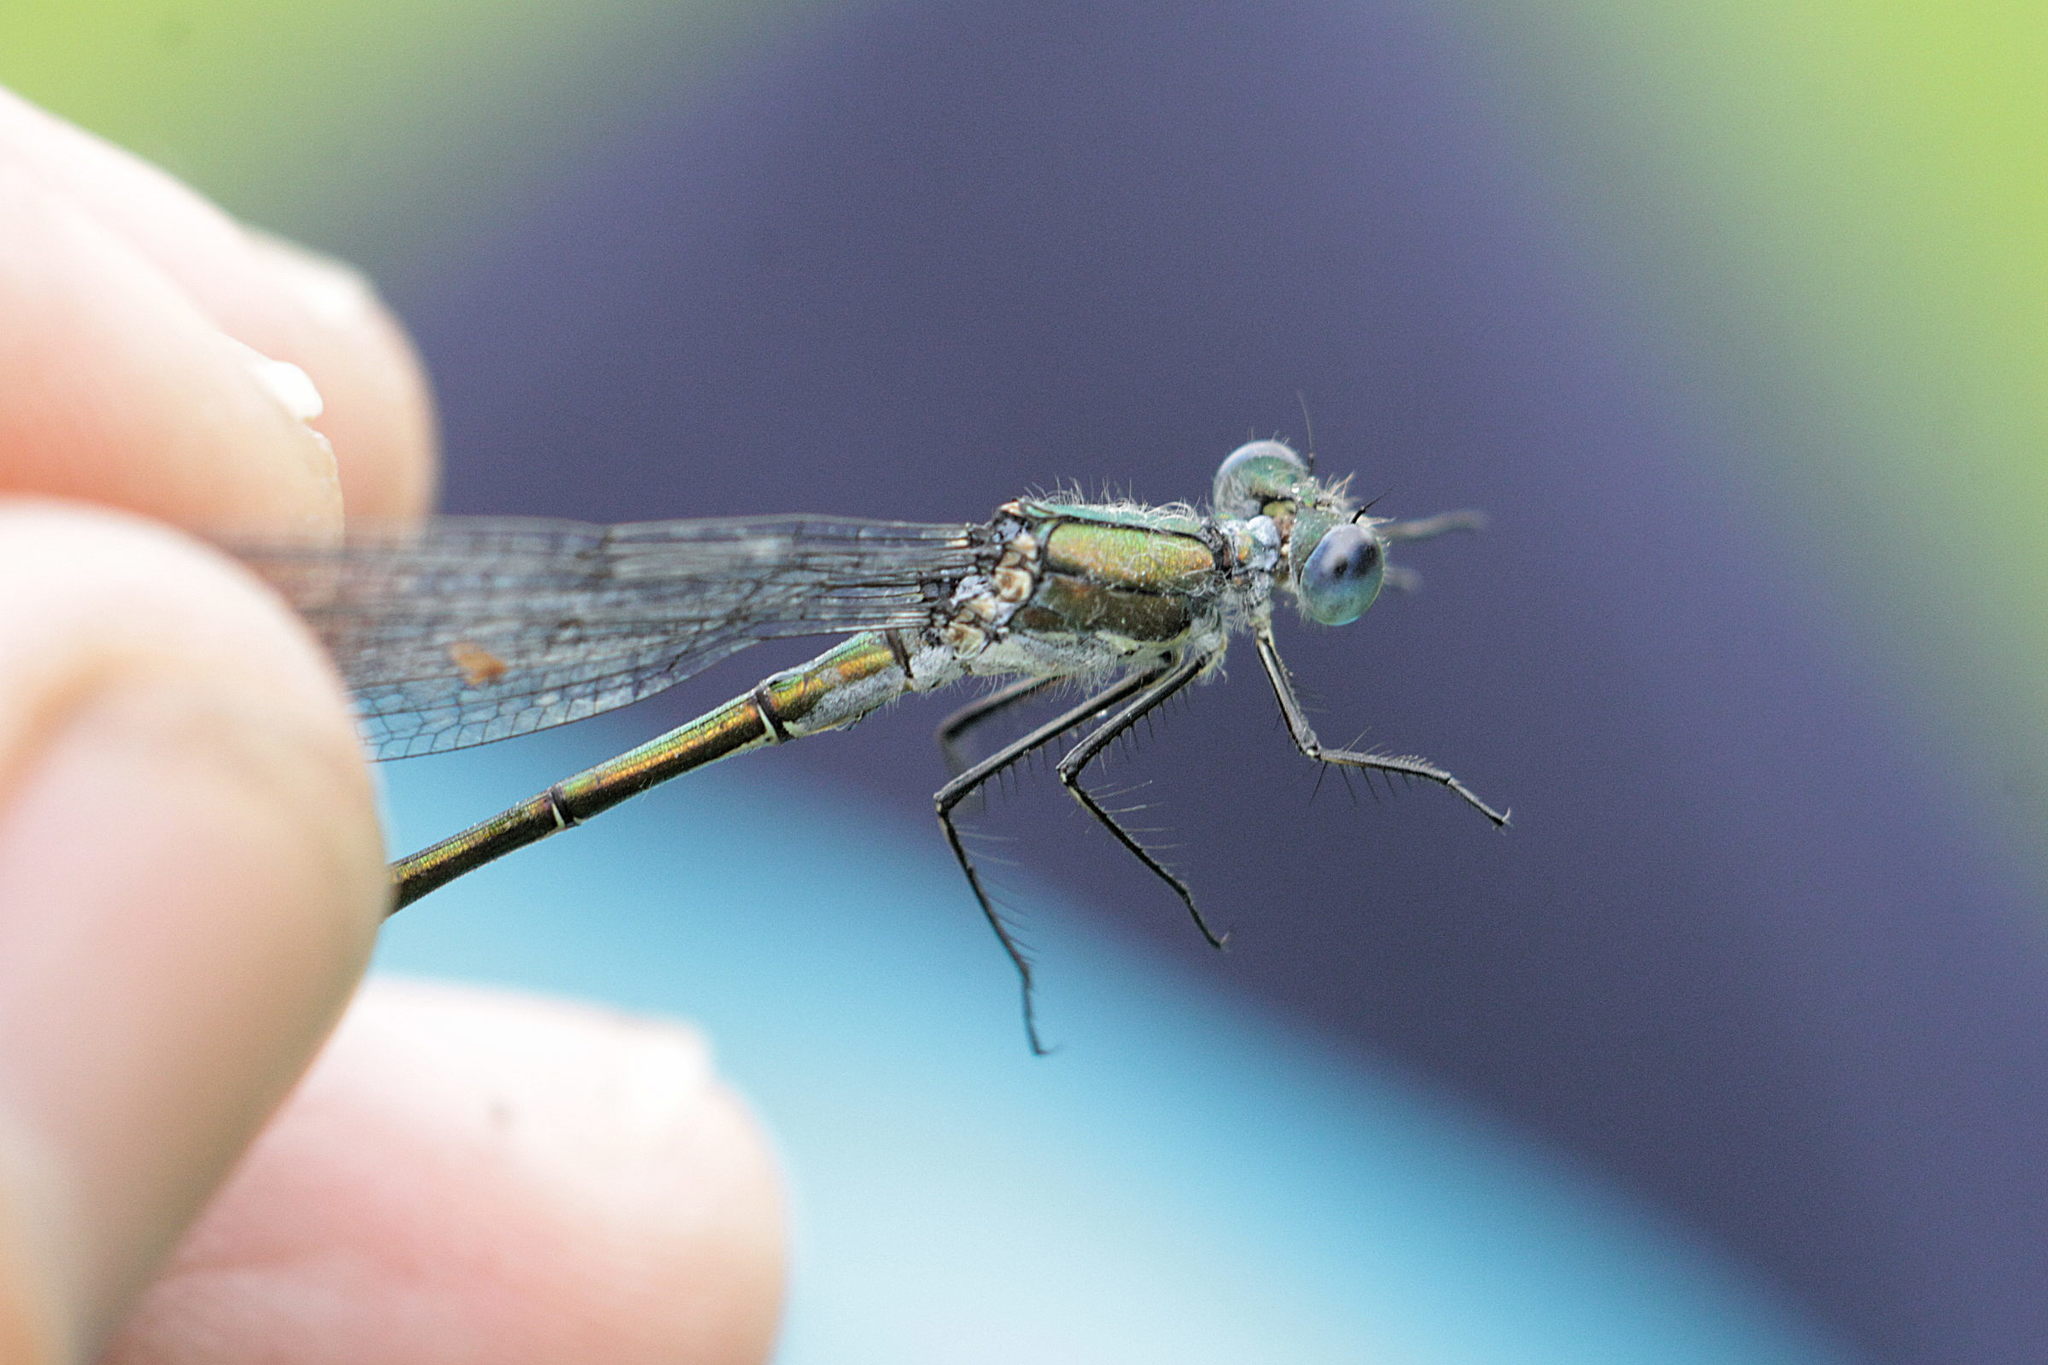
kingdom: Animalia
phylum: Arthropoda
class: Insecta
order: Odonata
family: Lestidae
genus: Lestes
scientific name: Lestes dryas
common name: Scarce emerald damselfly
